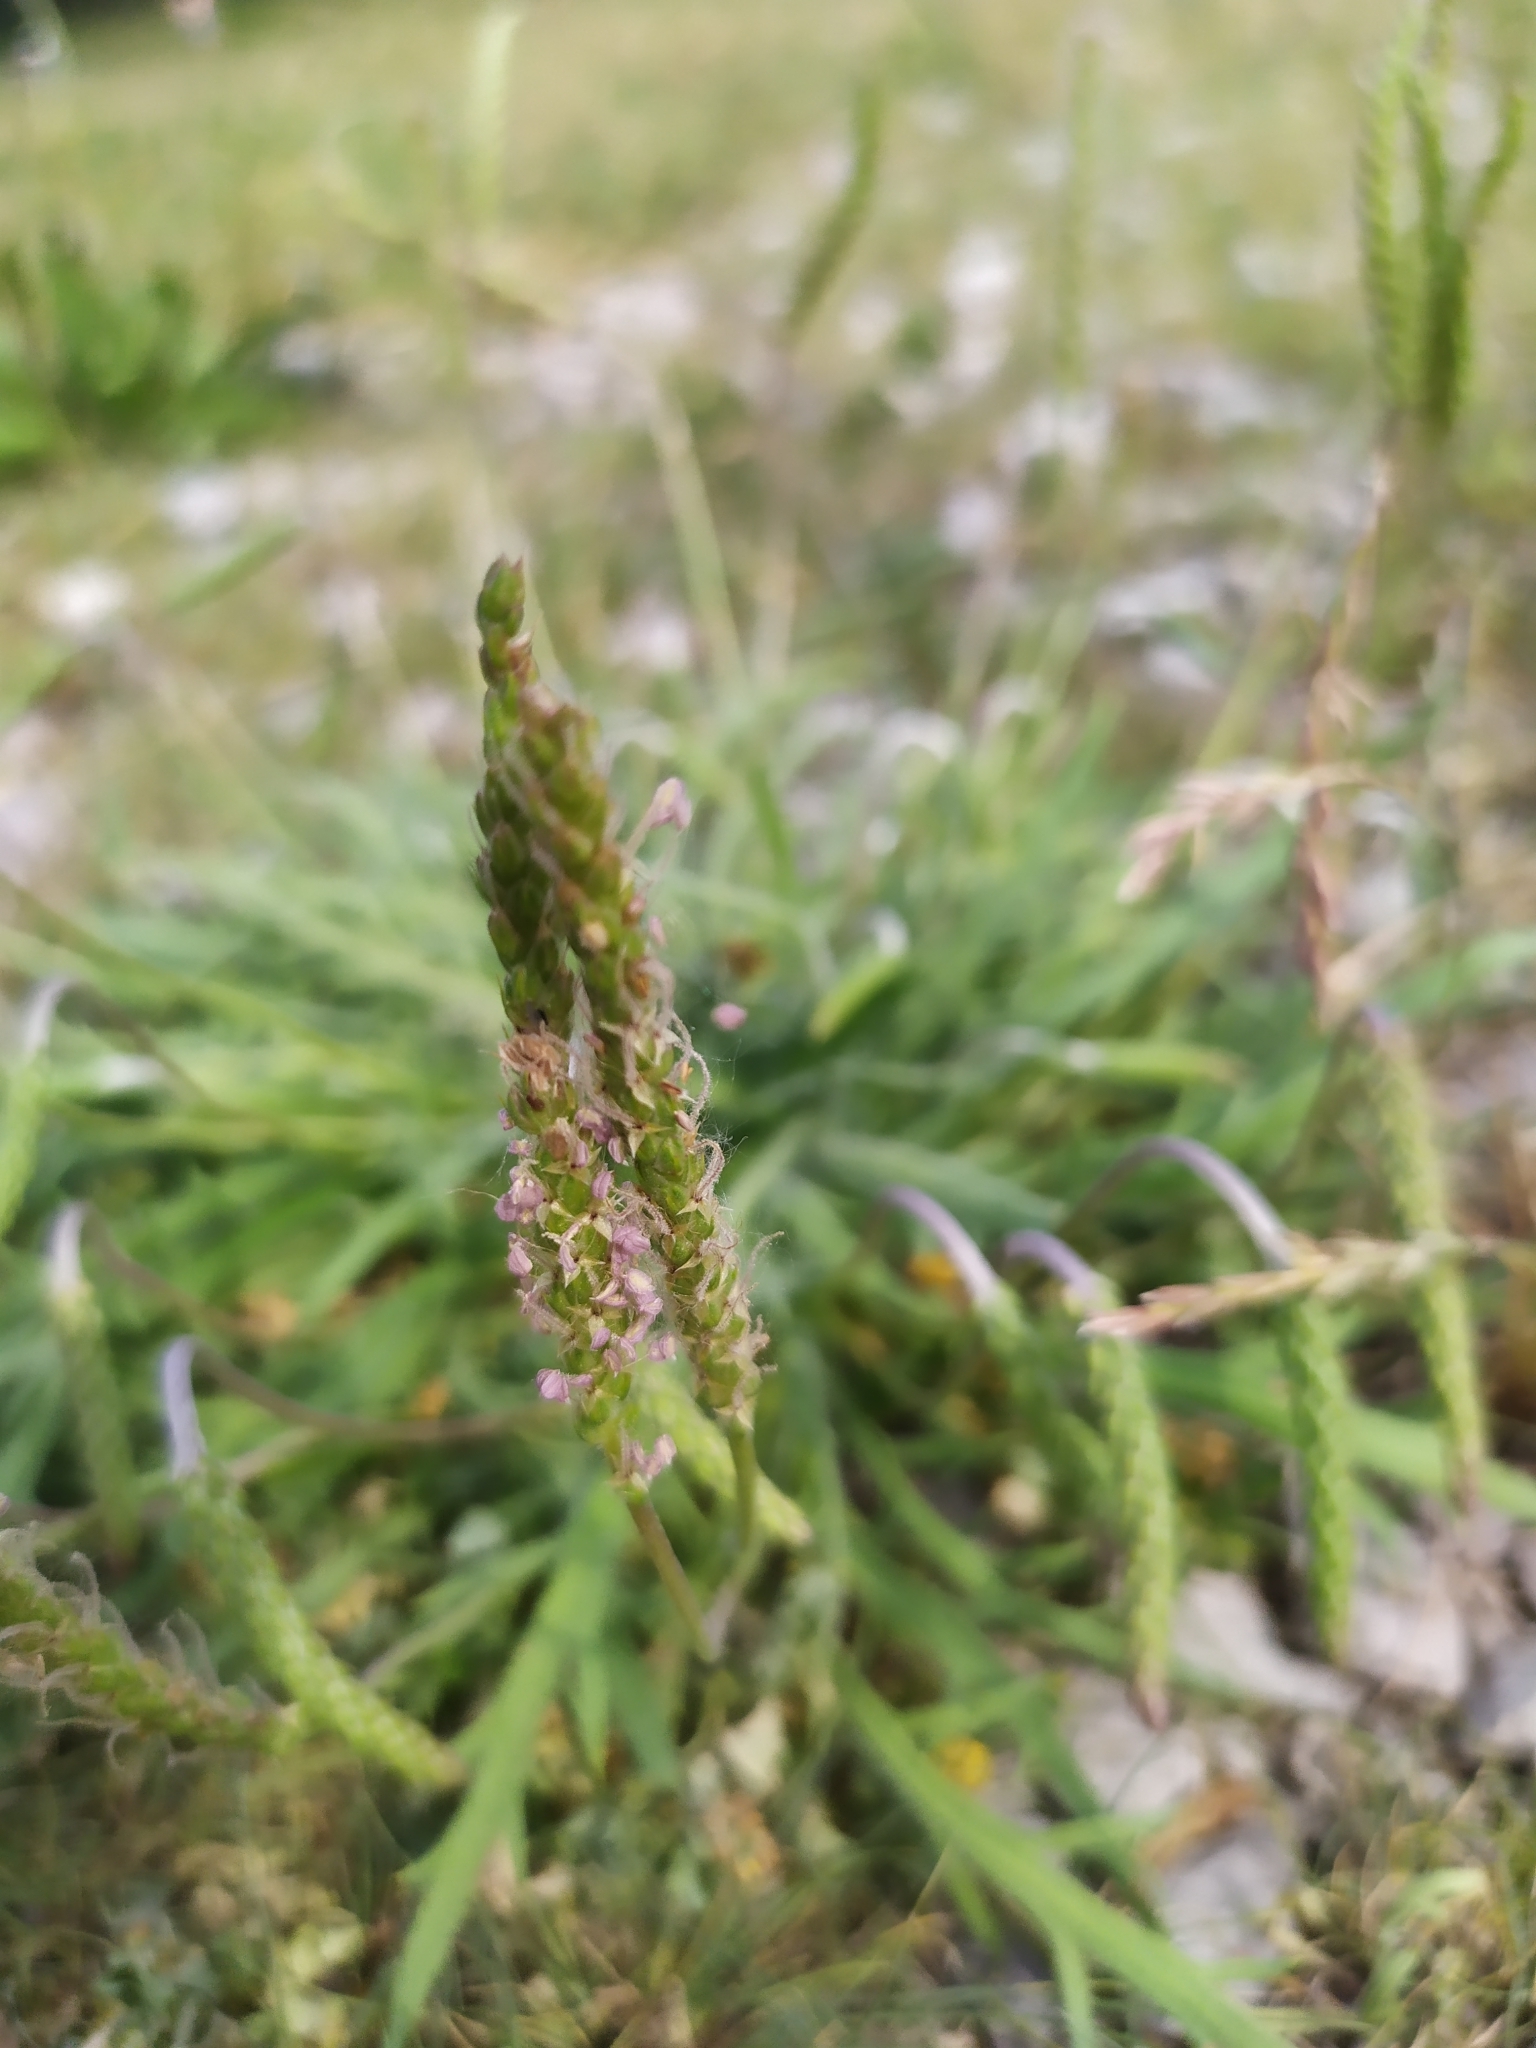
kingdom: Plantae
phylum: Tracheophyta
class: Magnoliopsida
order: Lamiales
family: Plantaginaceae
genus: Plantago
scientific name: Plantago coronopus
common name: Buck's-horn plantain
